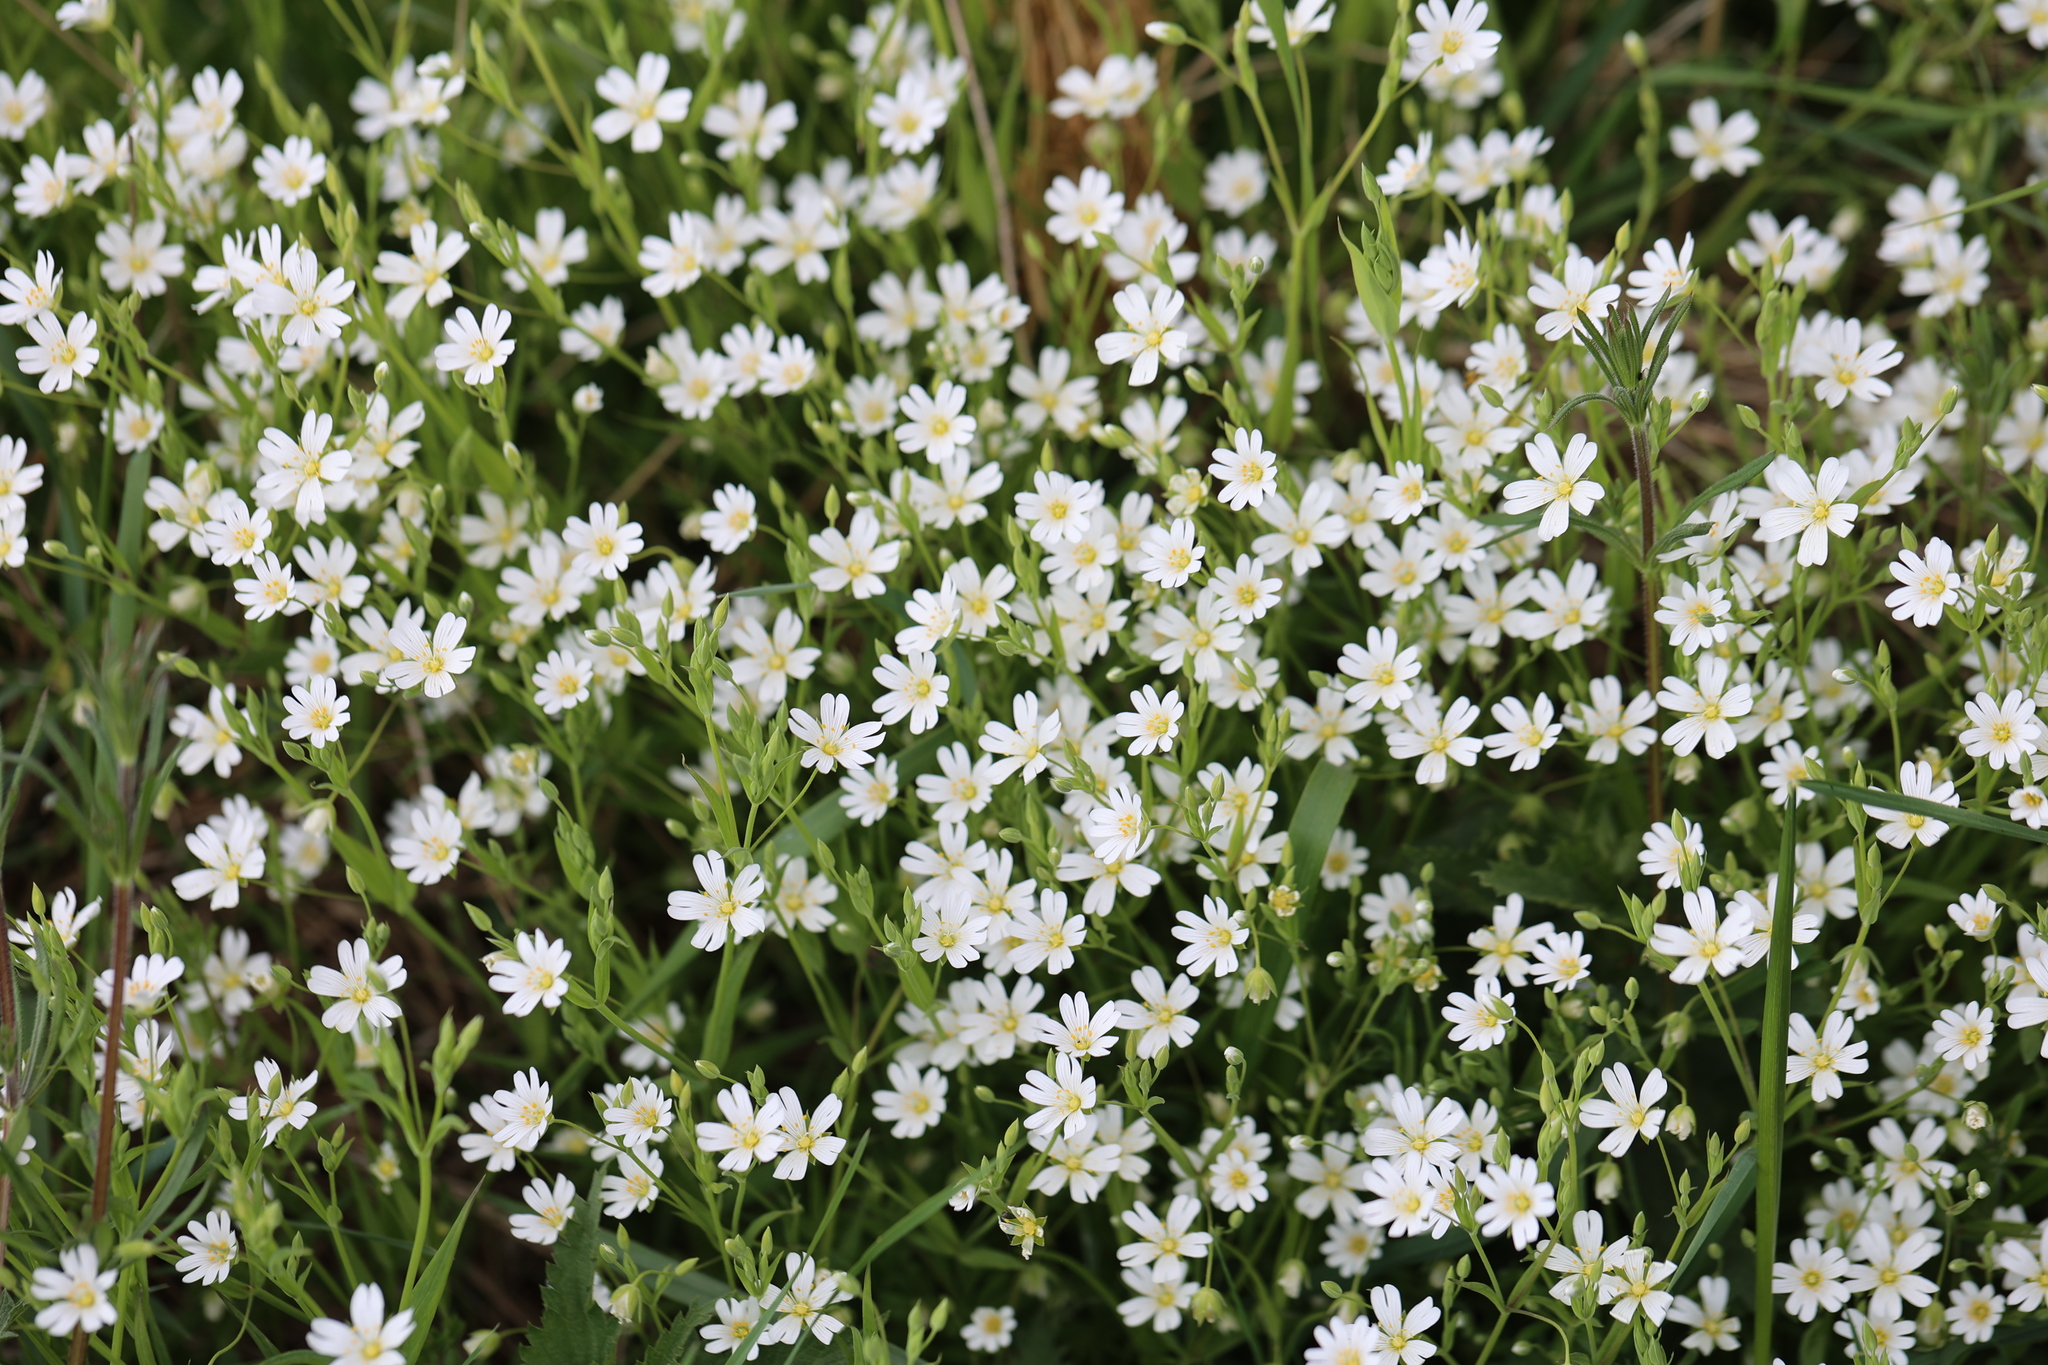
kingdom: Plantae
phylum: Tracheophyta
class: Magnoliopsida
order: Caryophyllales
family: Caryophyllaceae
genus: Rabelera
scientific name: Rabelera holostea
